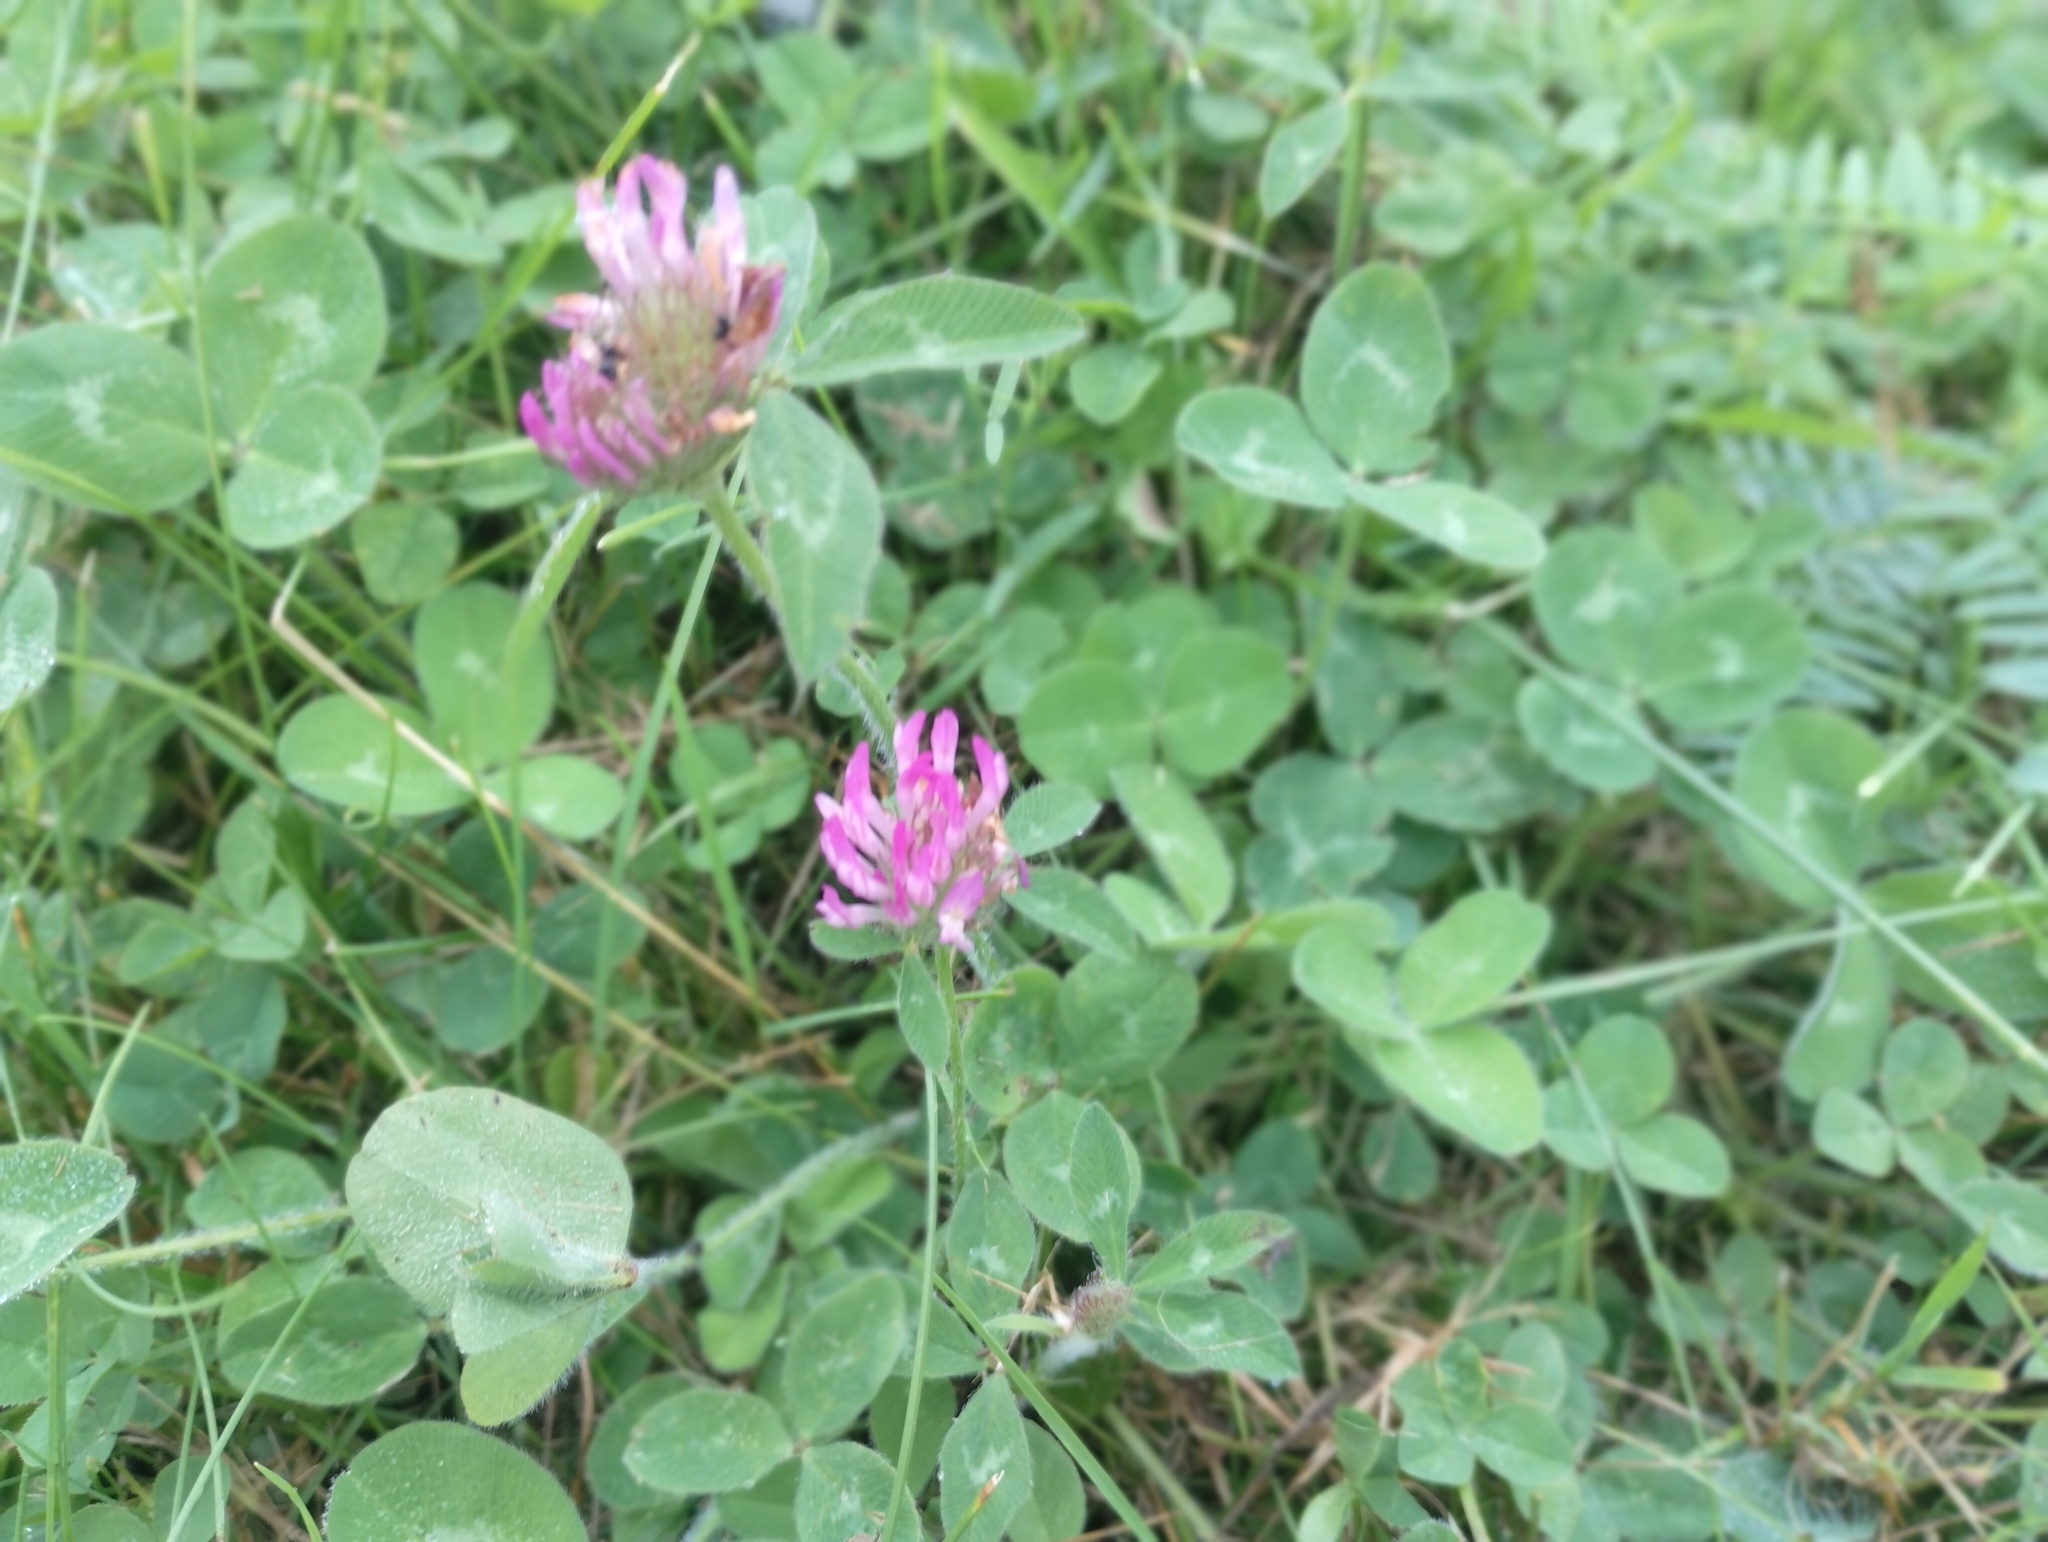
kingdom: Plantae
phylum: Tracheophyta
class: Magnoliopsida
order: Fabales
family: Fabaceae
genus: Trifolium
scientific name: Trifolium pratense
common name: Red clover
